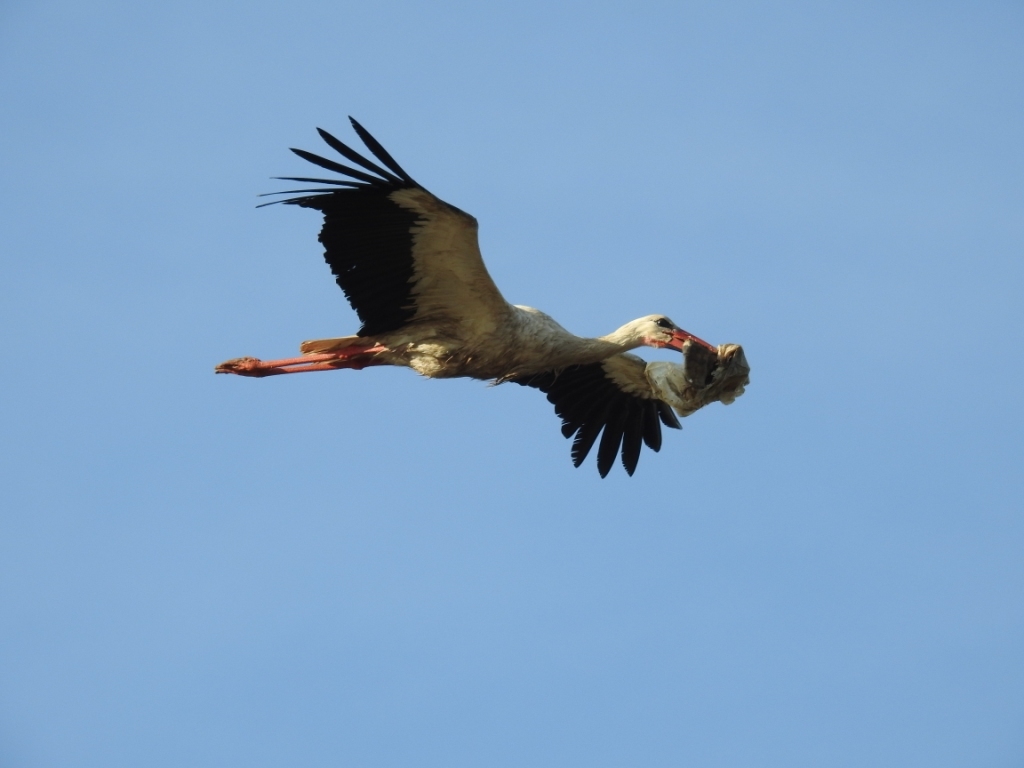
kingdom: Animalia
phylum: Chordata
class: Aves
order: Ciconiiformes
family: Ciconiidae
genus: Ciconia
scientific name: Ciconia ciconia
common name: White stork
